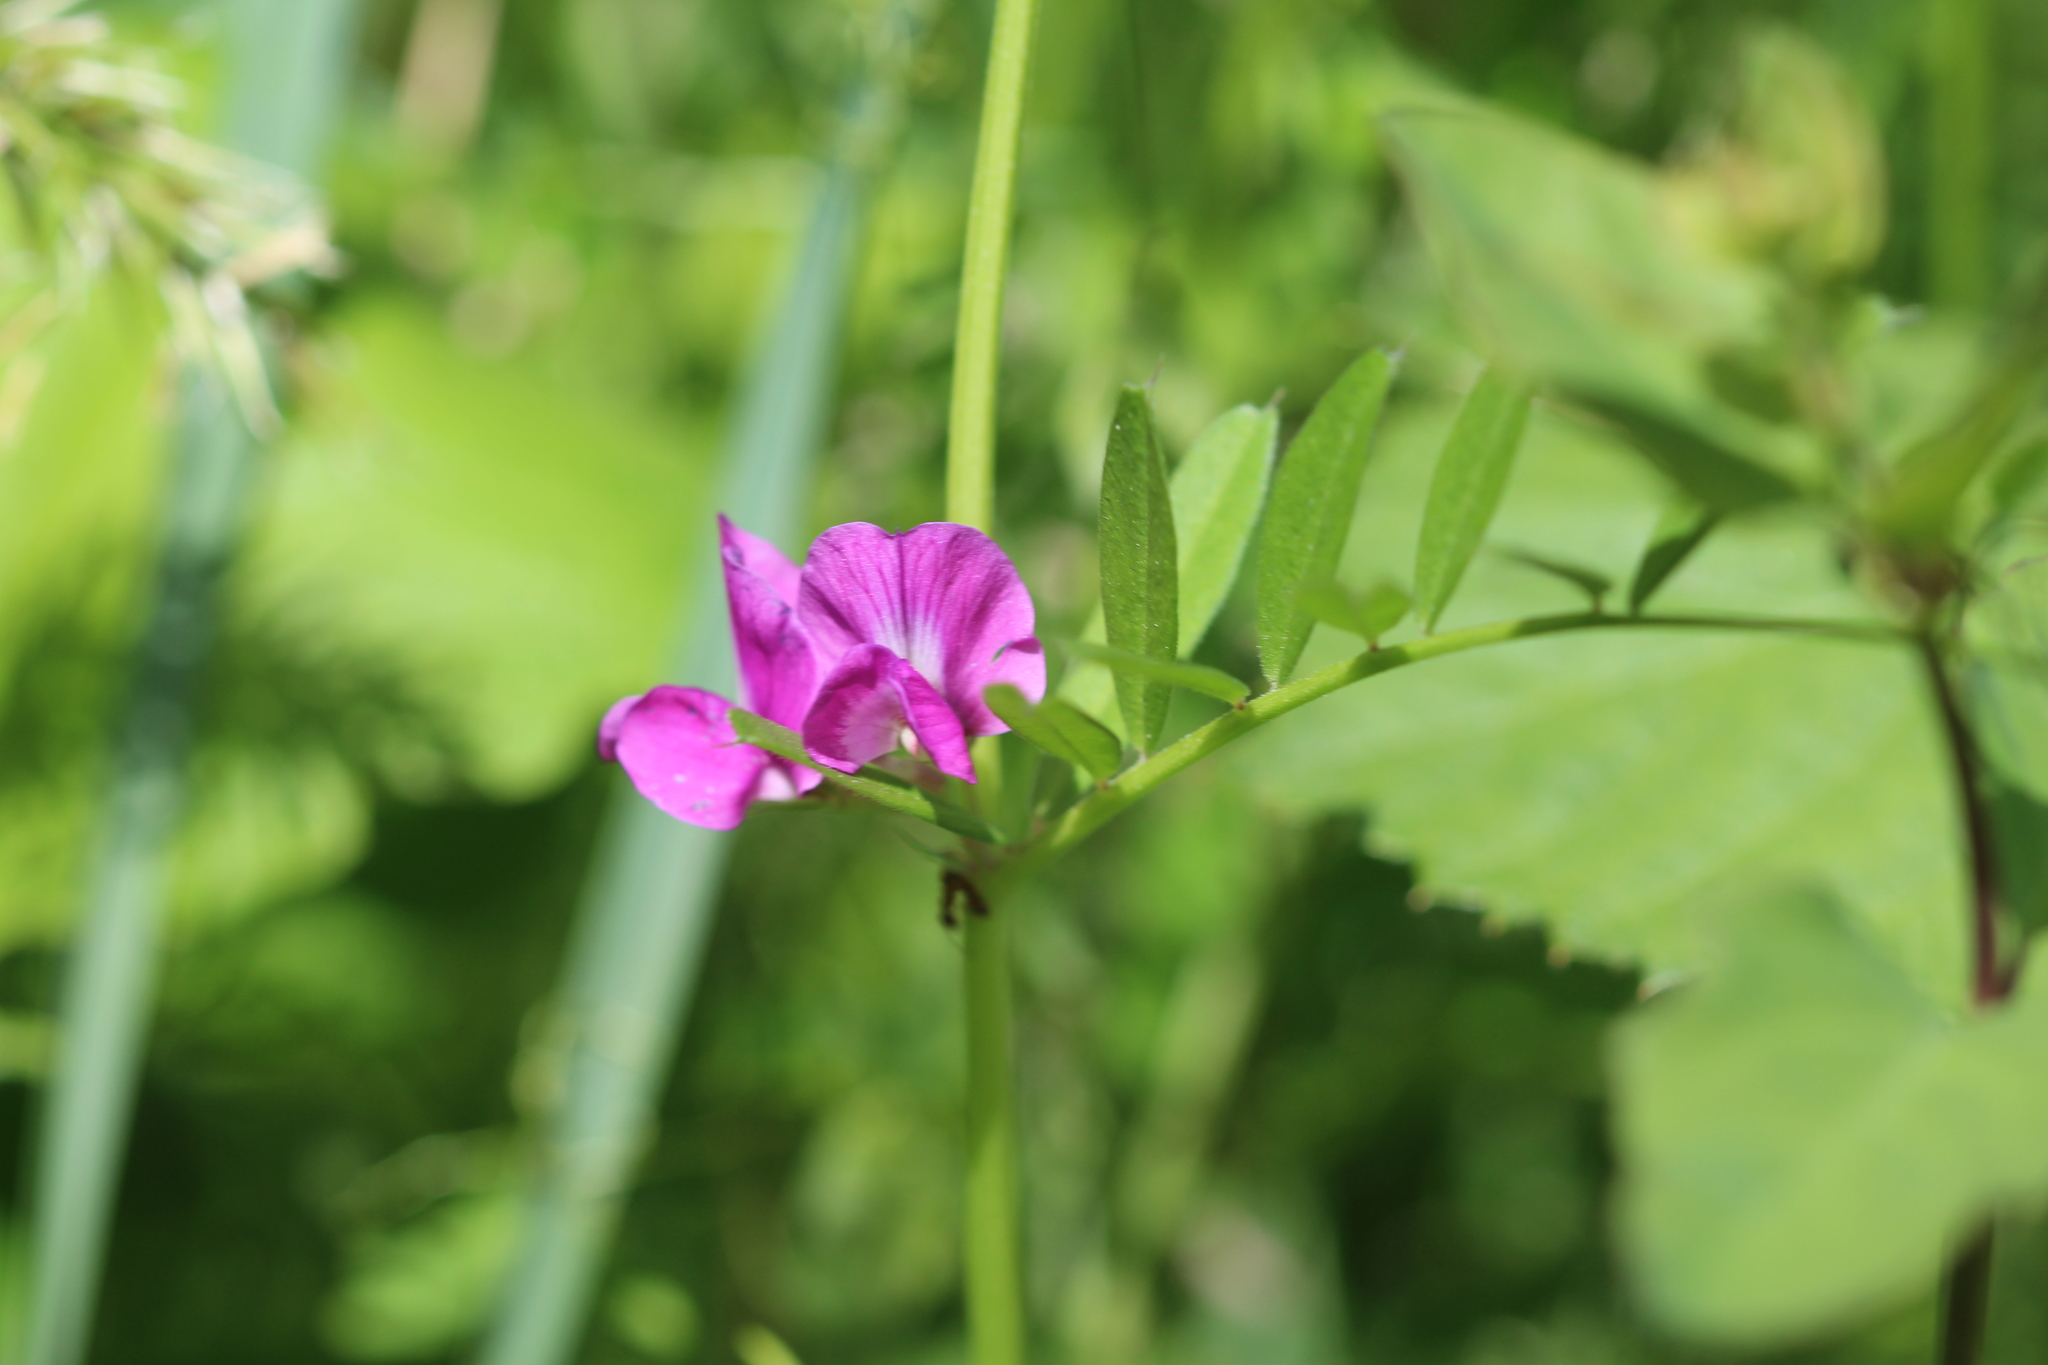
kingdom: Plantae
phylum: Tracheophyta
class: Magnoliopsida
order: Fabales
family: Fabaceae
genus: Vicia
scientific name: Vicia sativa
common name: Garden vetch
